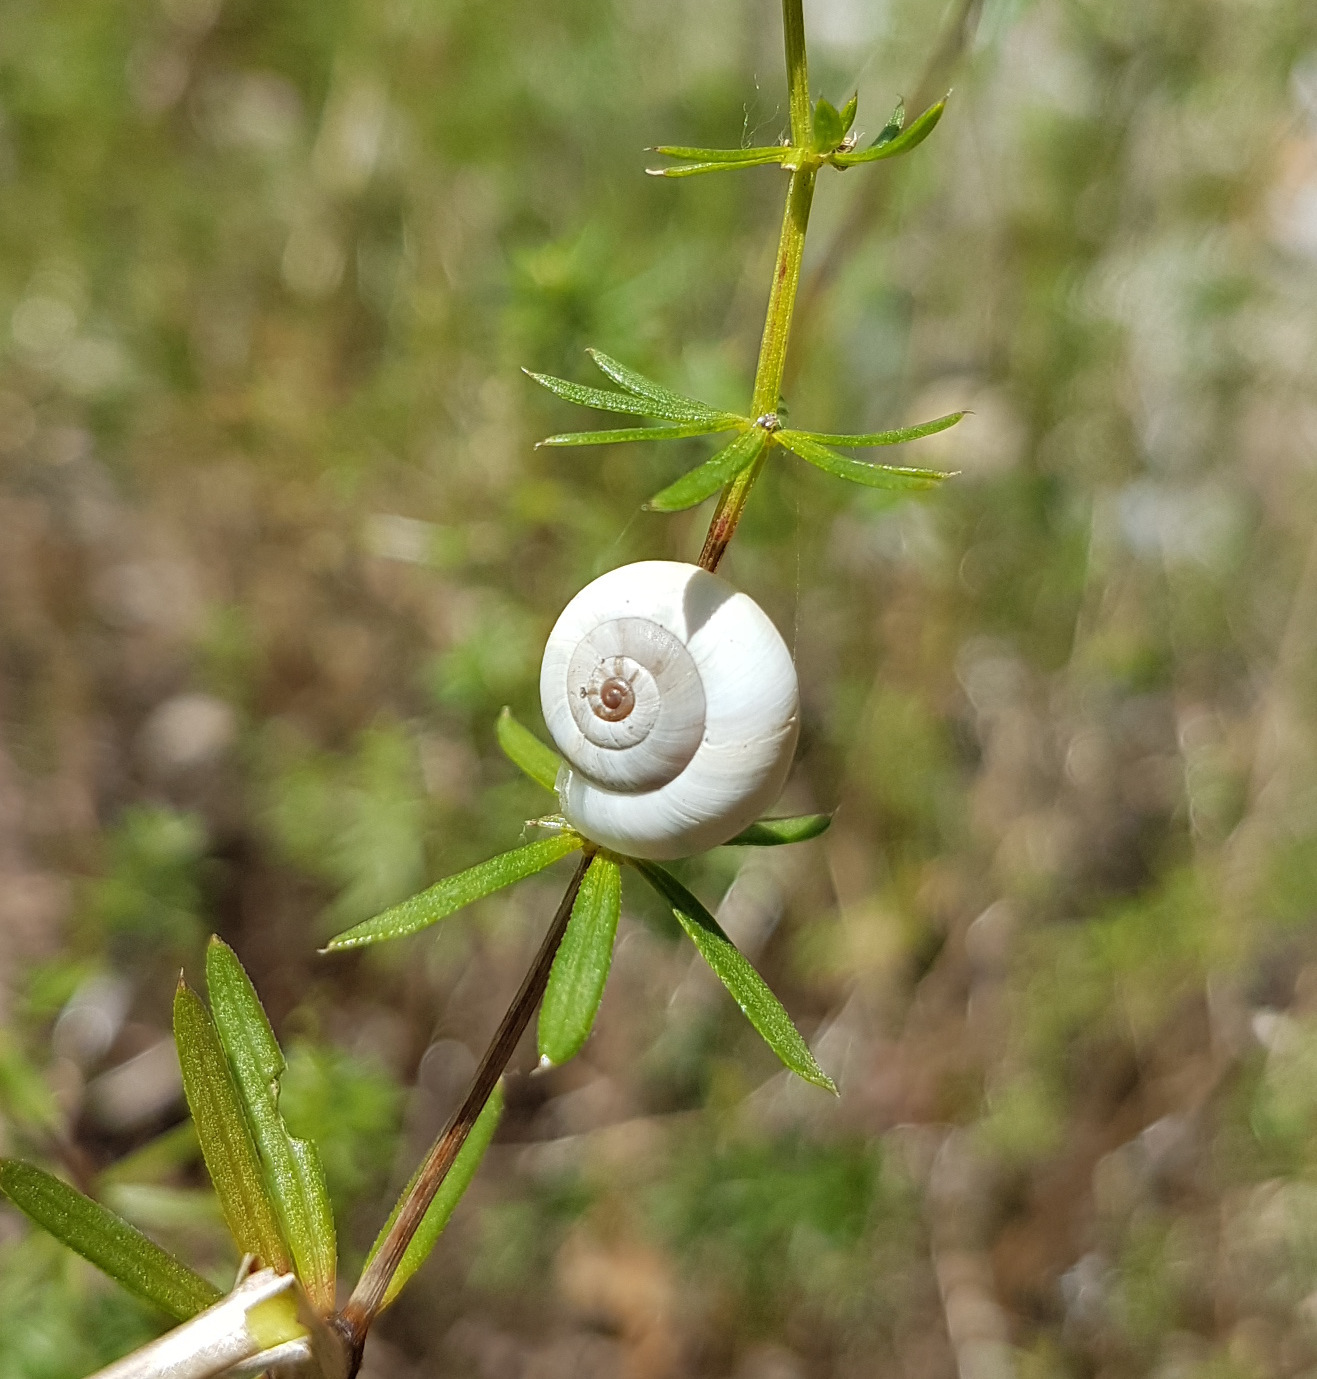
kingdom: Animalia
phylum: Mollusca
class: Gastropoda
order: Stylommatophora
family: Geomitridae
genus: Xeropicta
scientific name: Xeropicta derbentina
